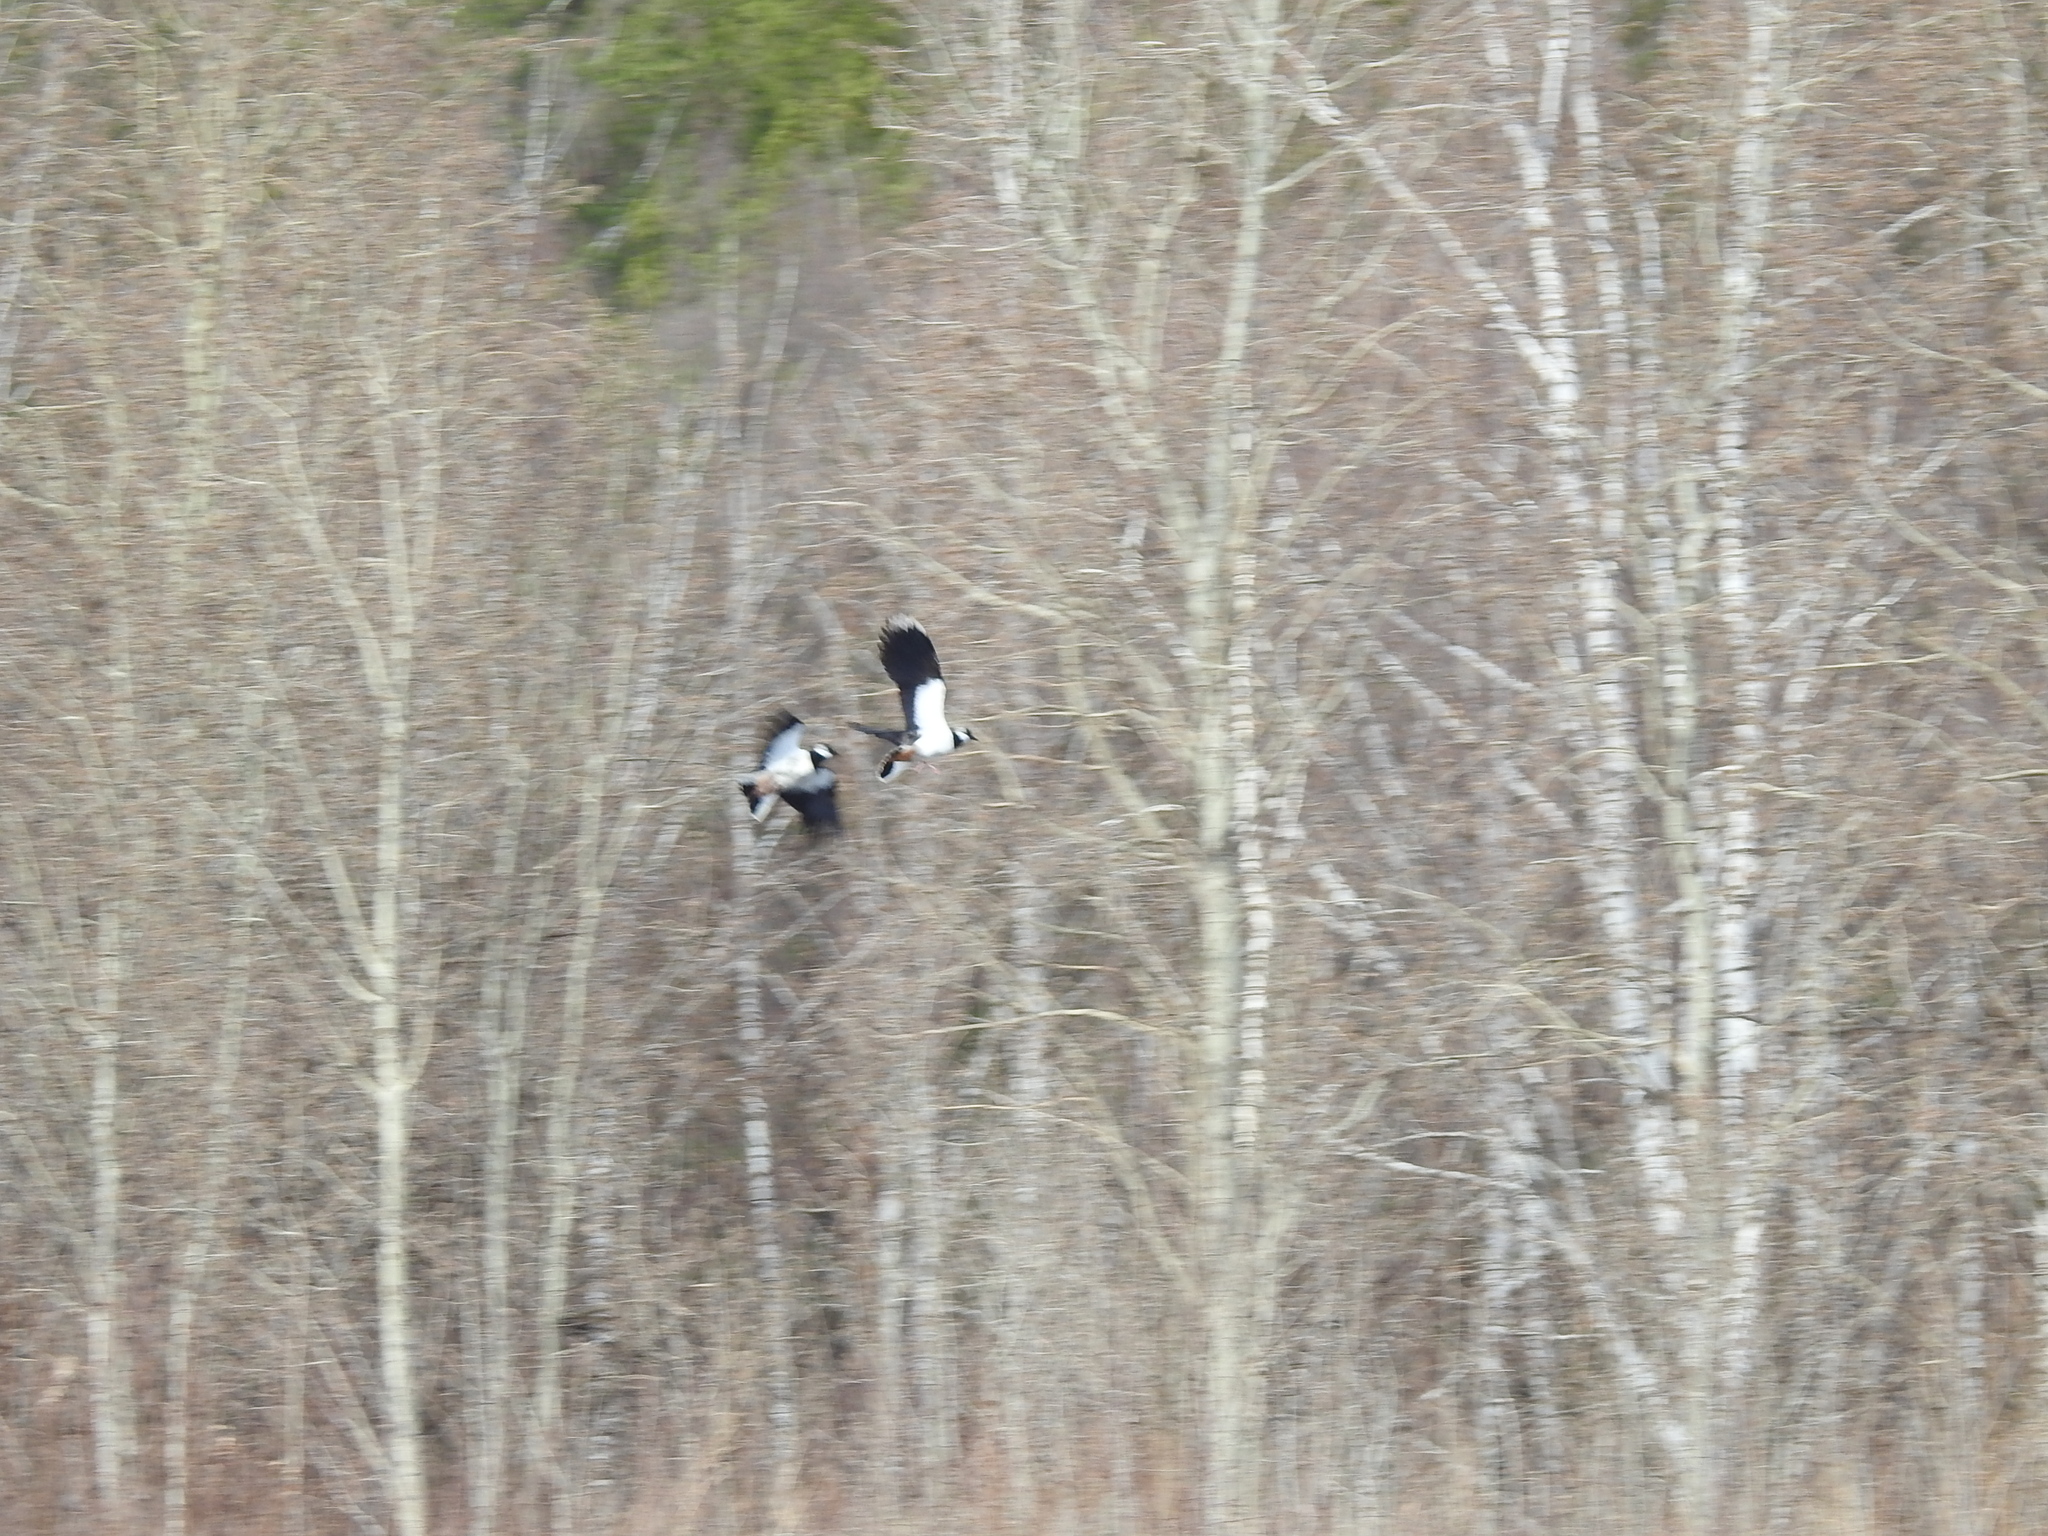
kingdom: Animalia
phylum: Chordata
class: Aves
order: Charadriiformes
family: Charadriidae
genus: Vanellus
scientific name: Vanellus vanellus
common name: Northern lapwing
